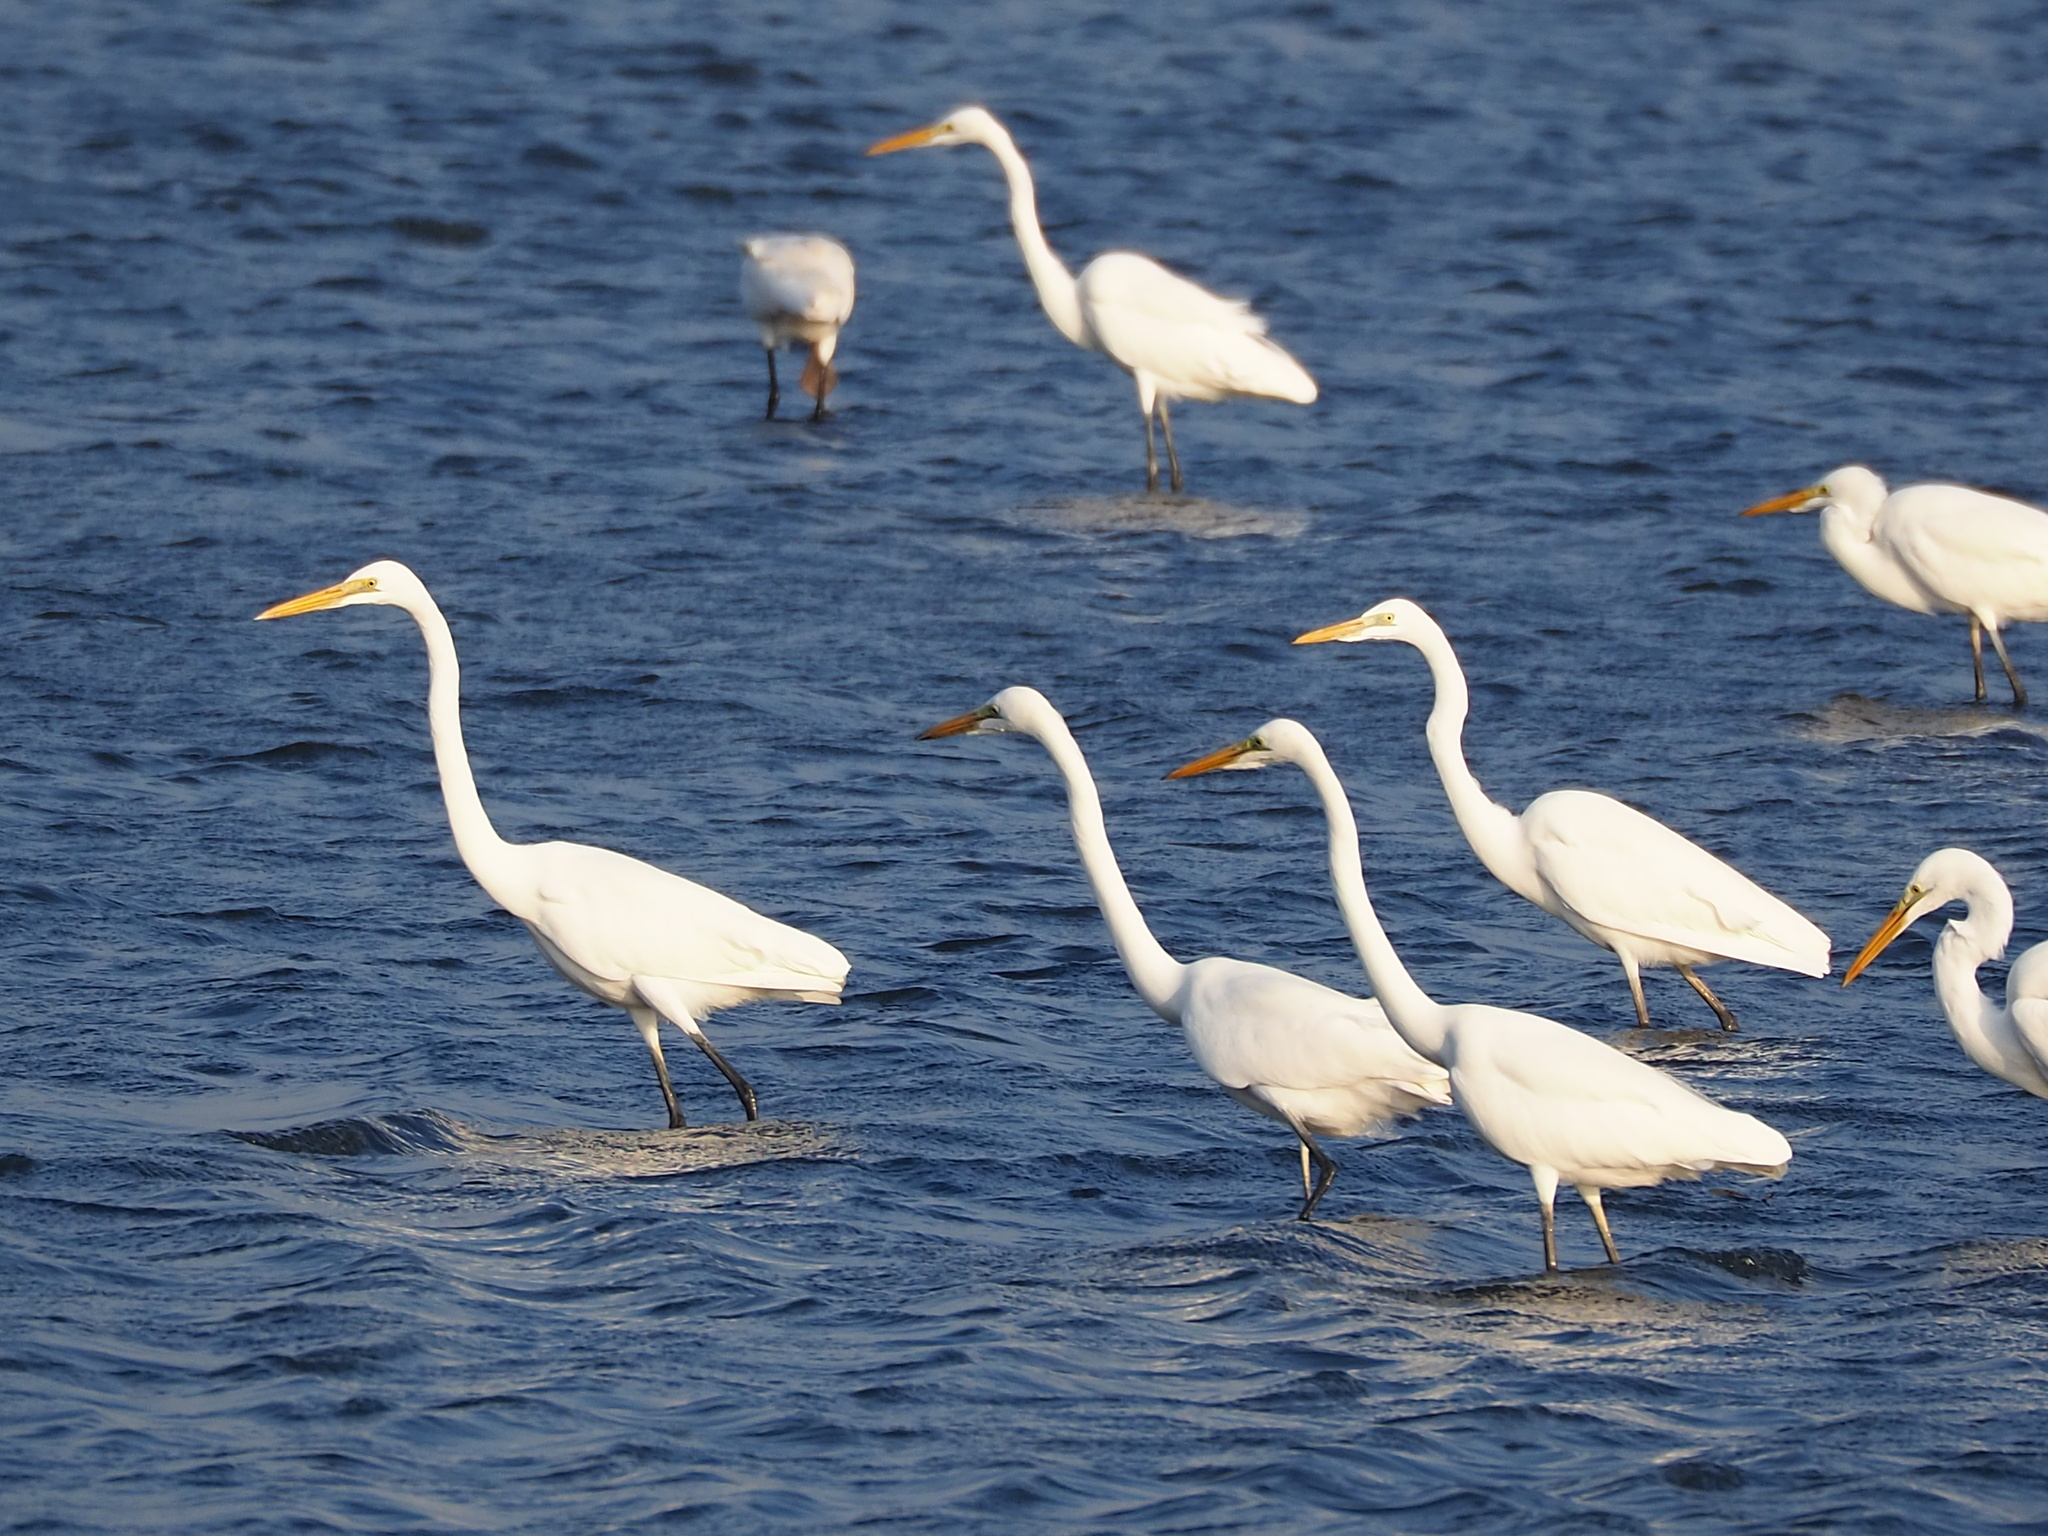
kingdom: Animalia
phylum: Chordata
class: Aves
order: Pelecaniformes
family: Ardeidae
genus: Ardea
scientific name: Ardea modesta
